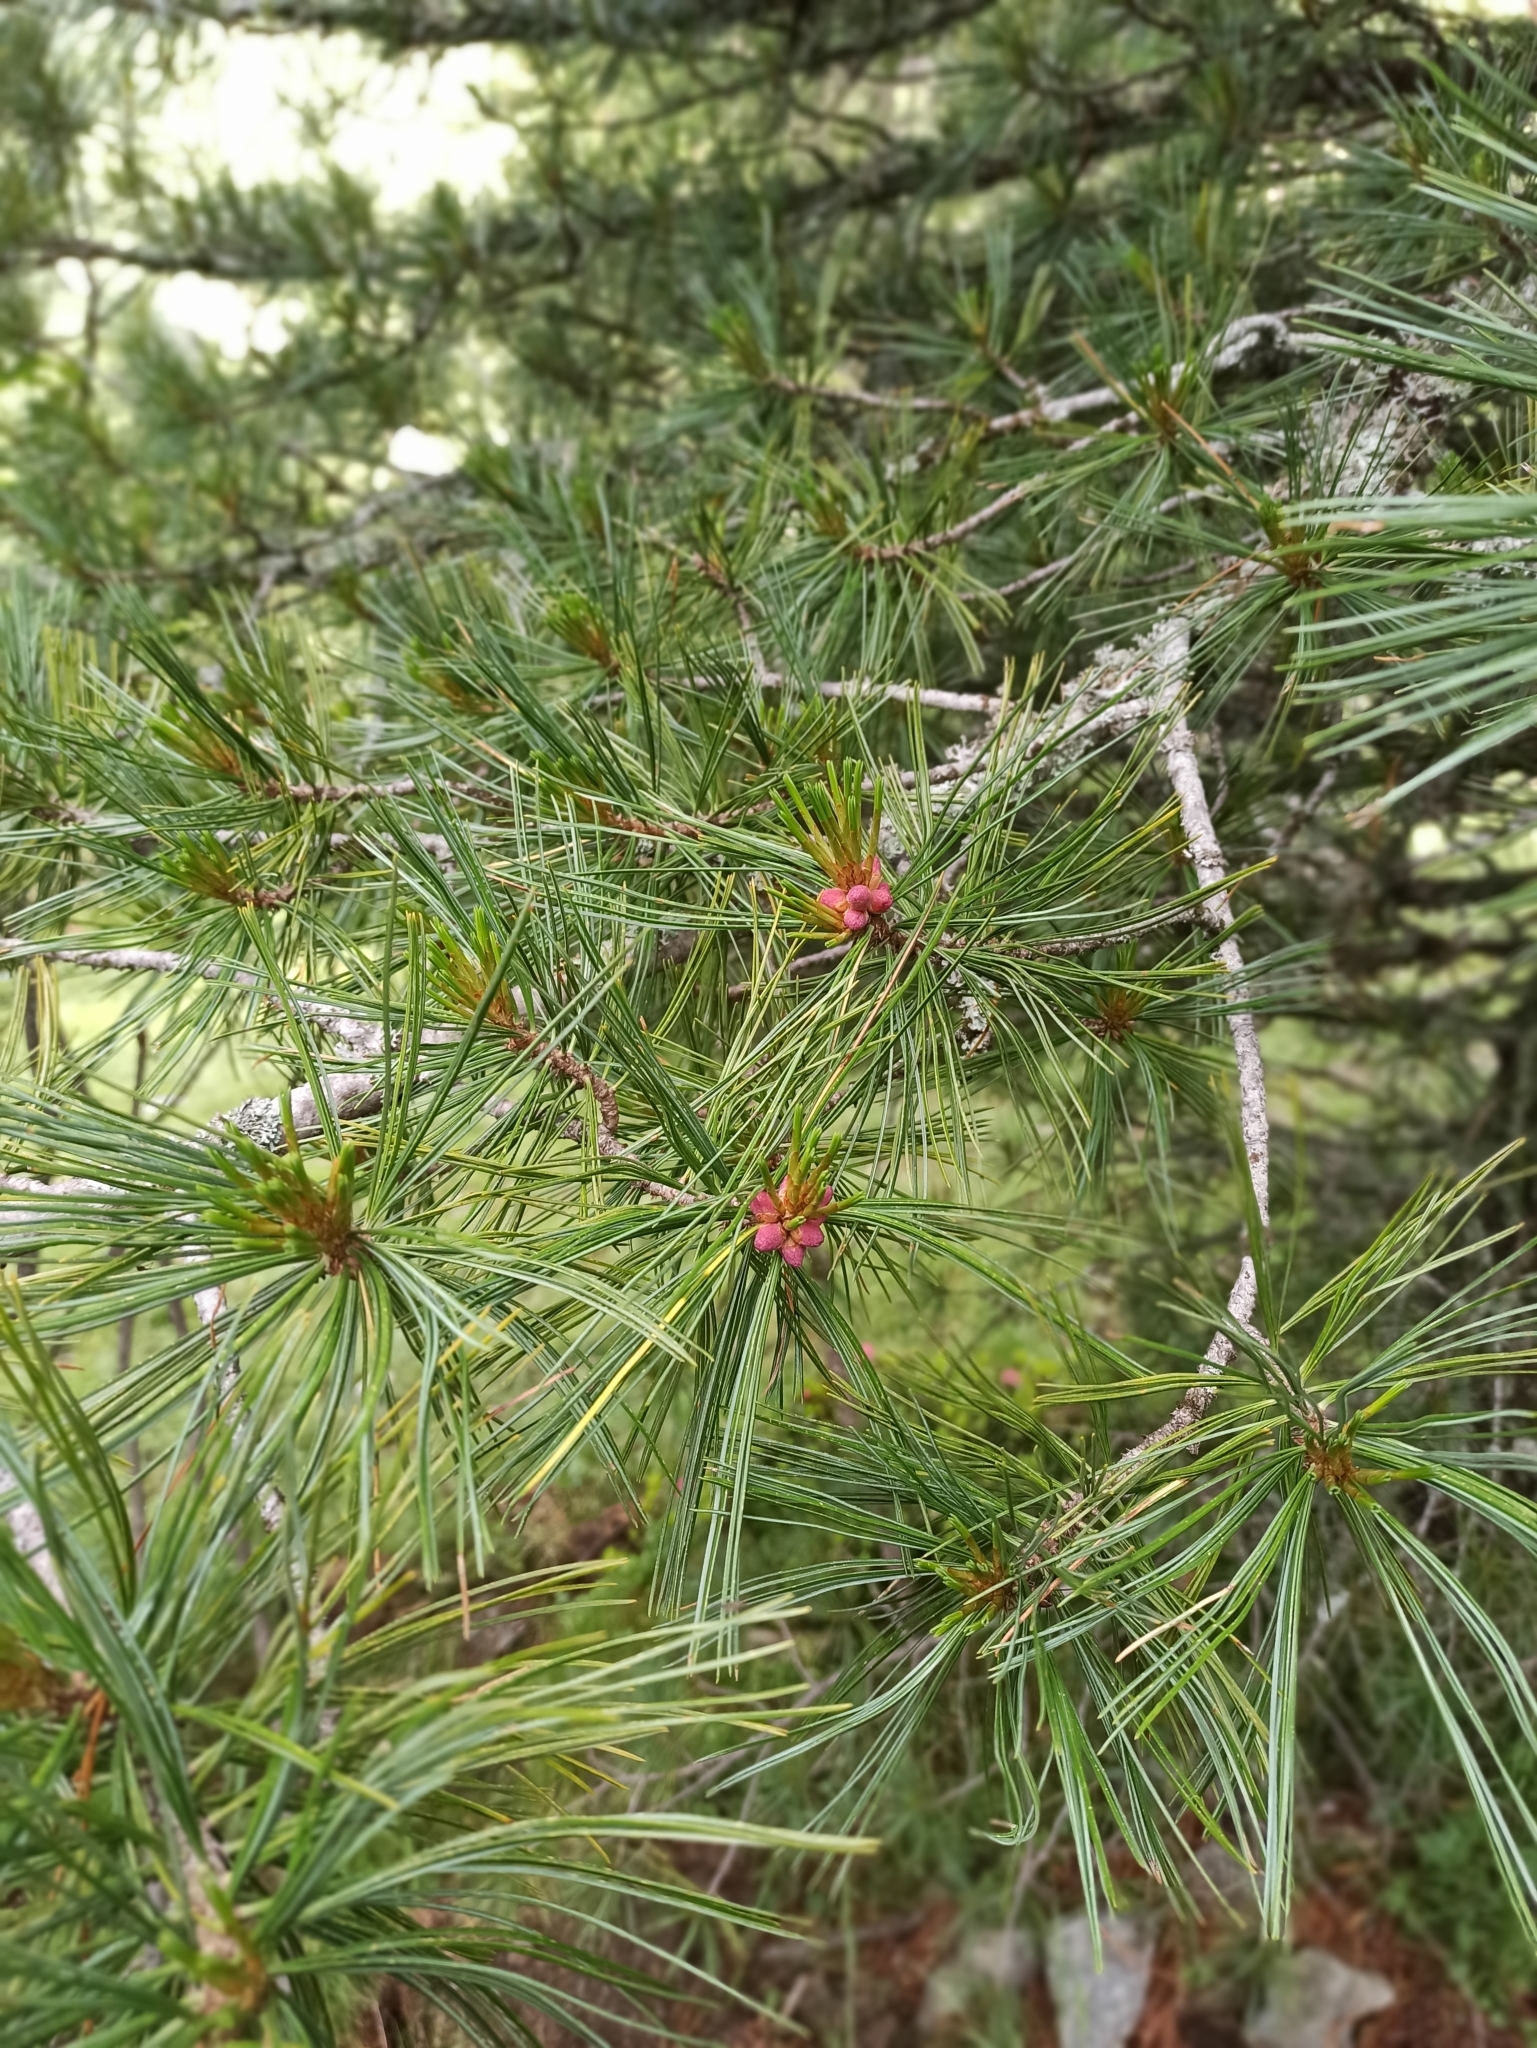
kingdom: Plantae
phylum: Tracheophyta
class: Pinopsida
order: Pinales
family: Pinaceae
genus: Pinus
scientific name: Pinus cembra
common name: Arolla pine
